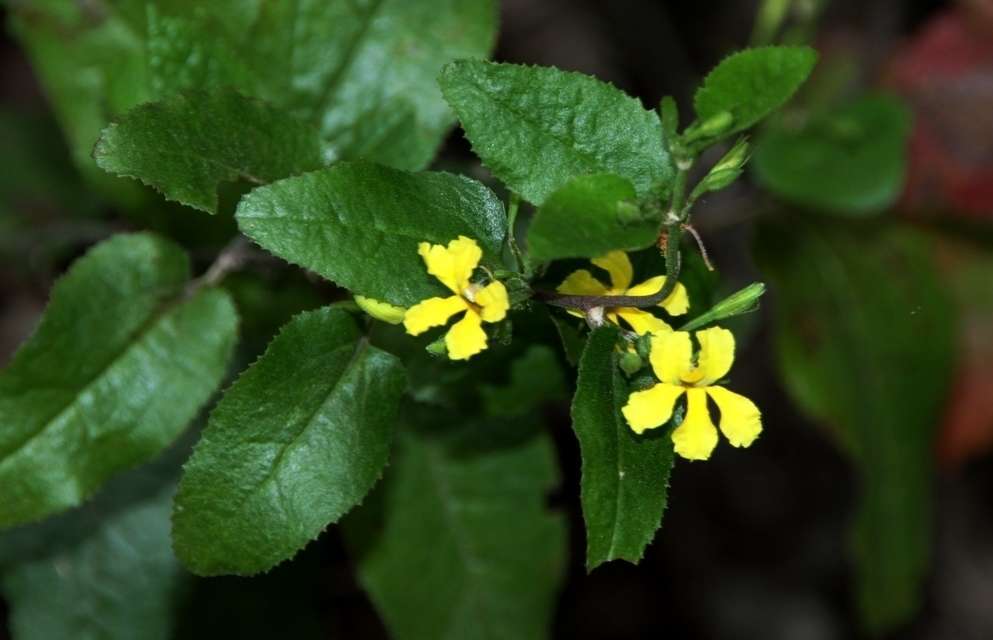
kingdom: Plantae
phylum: Tracheophyta
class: Magnoliopsida
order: Asterales
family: Goodeniaceae
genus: Goodenia
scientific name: Goodenia ovata
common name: Hop goodenia
